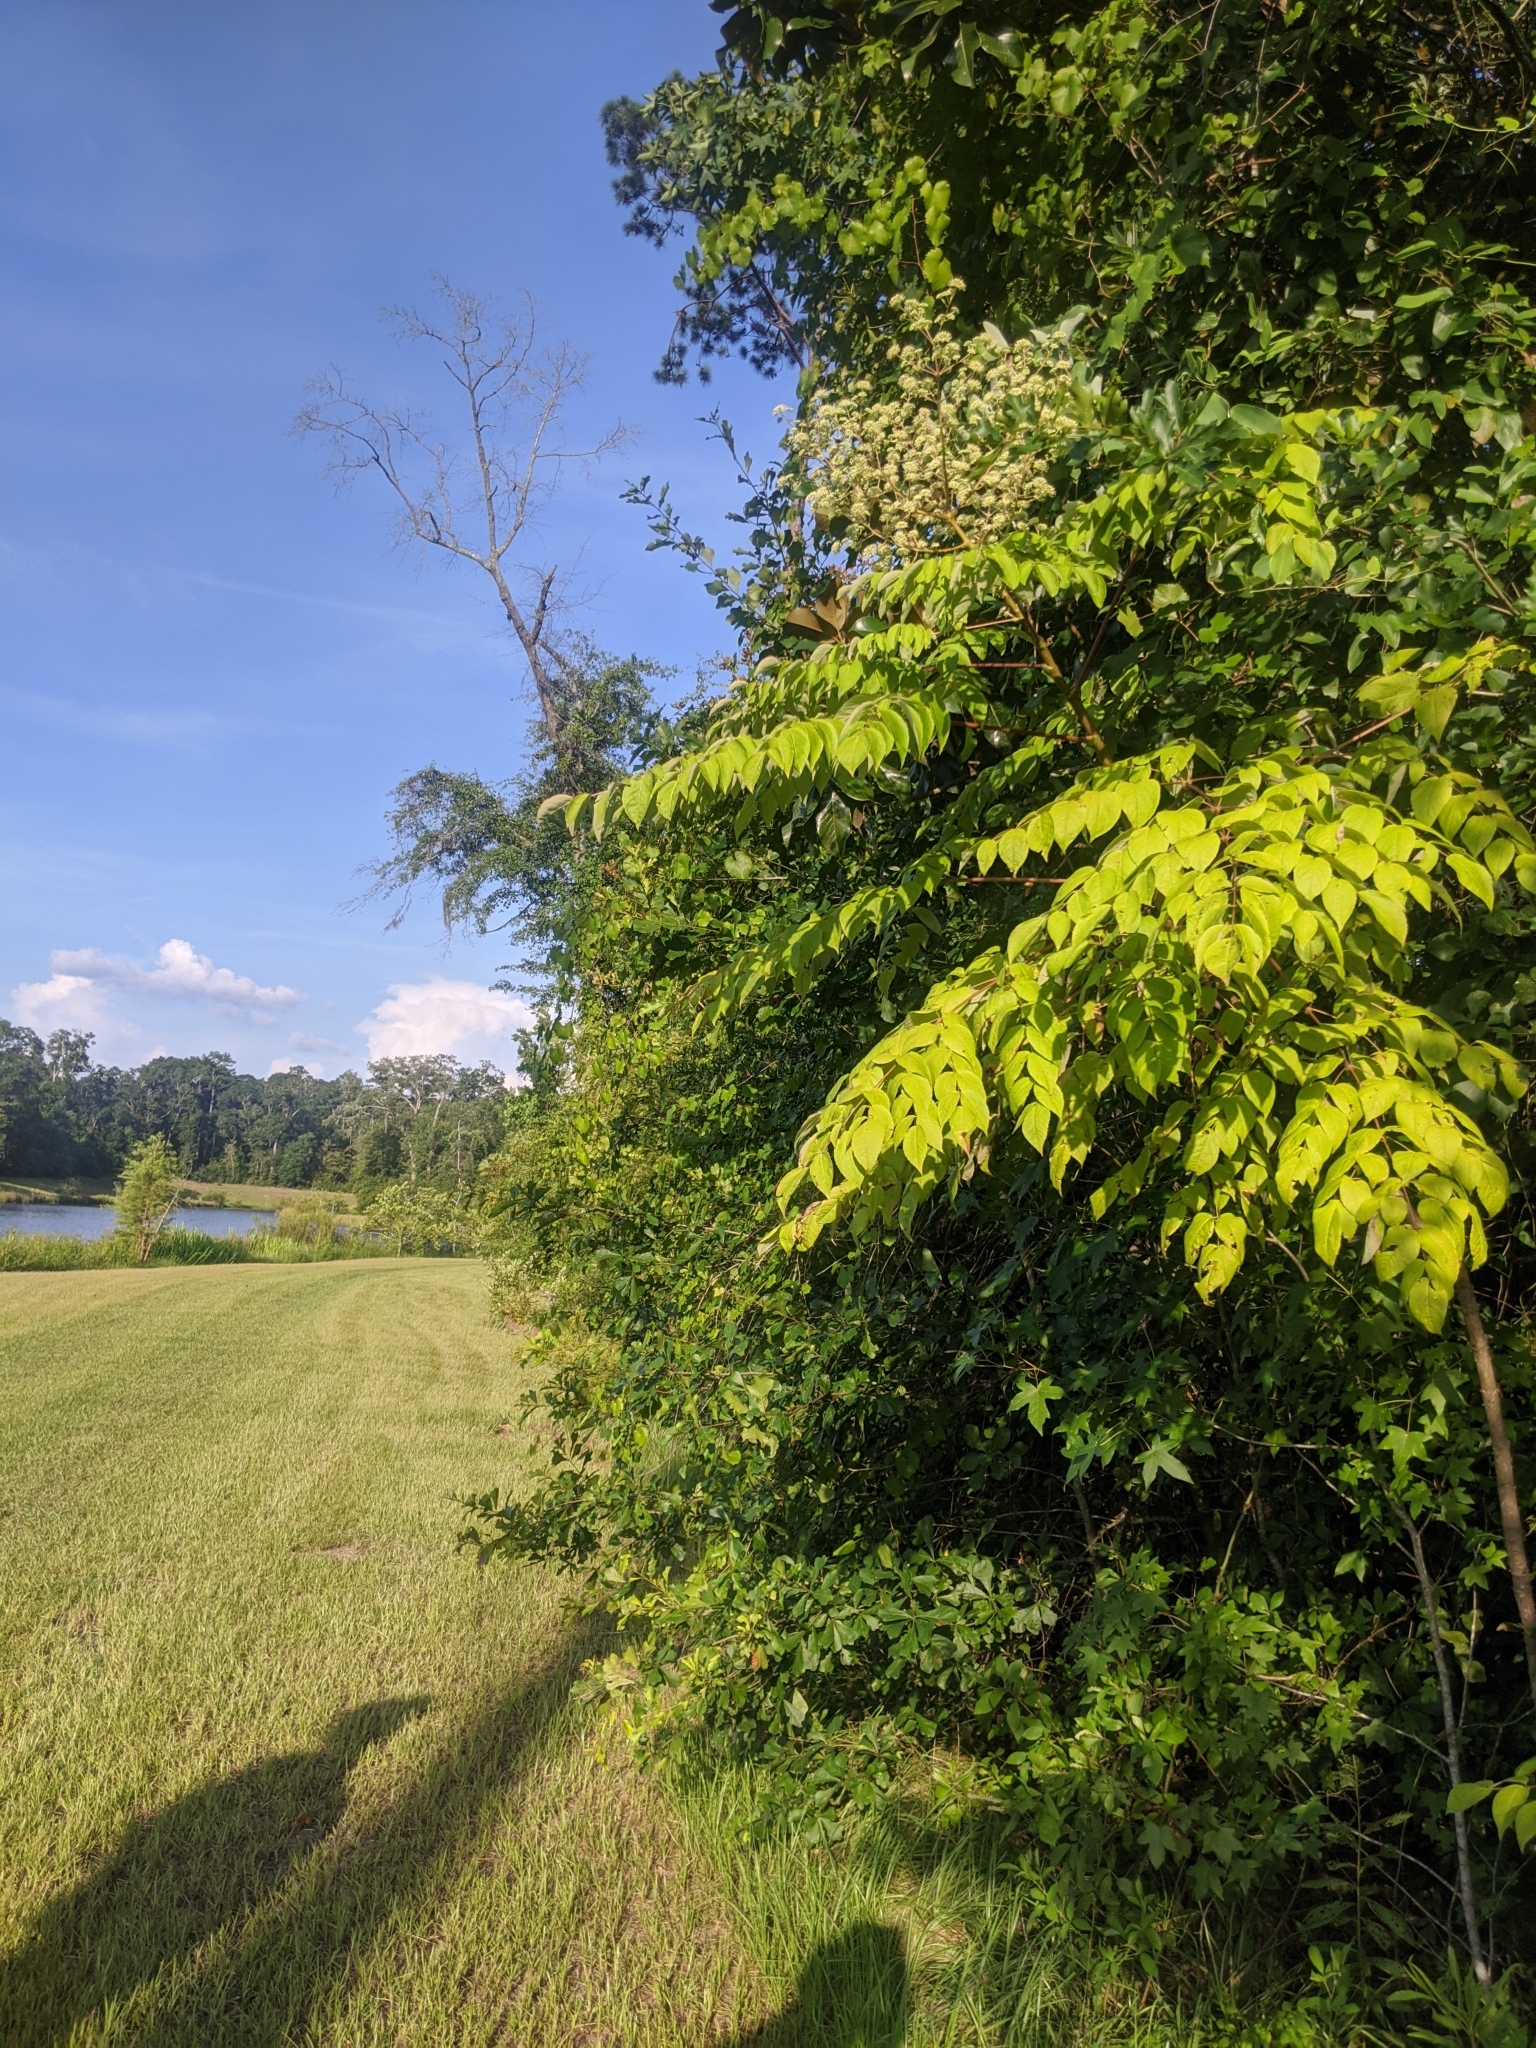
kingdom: Plantae
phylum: Tracheophyta
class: Magnoliopsida
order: Apiales
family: Araliaceae
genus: Aralia
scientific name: Aralia spinosa
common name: Hercules'-club
